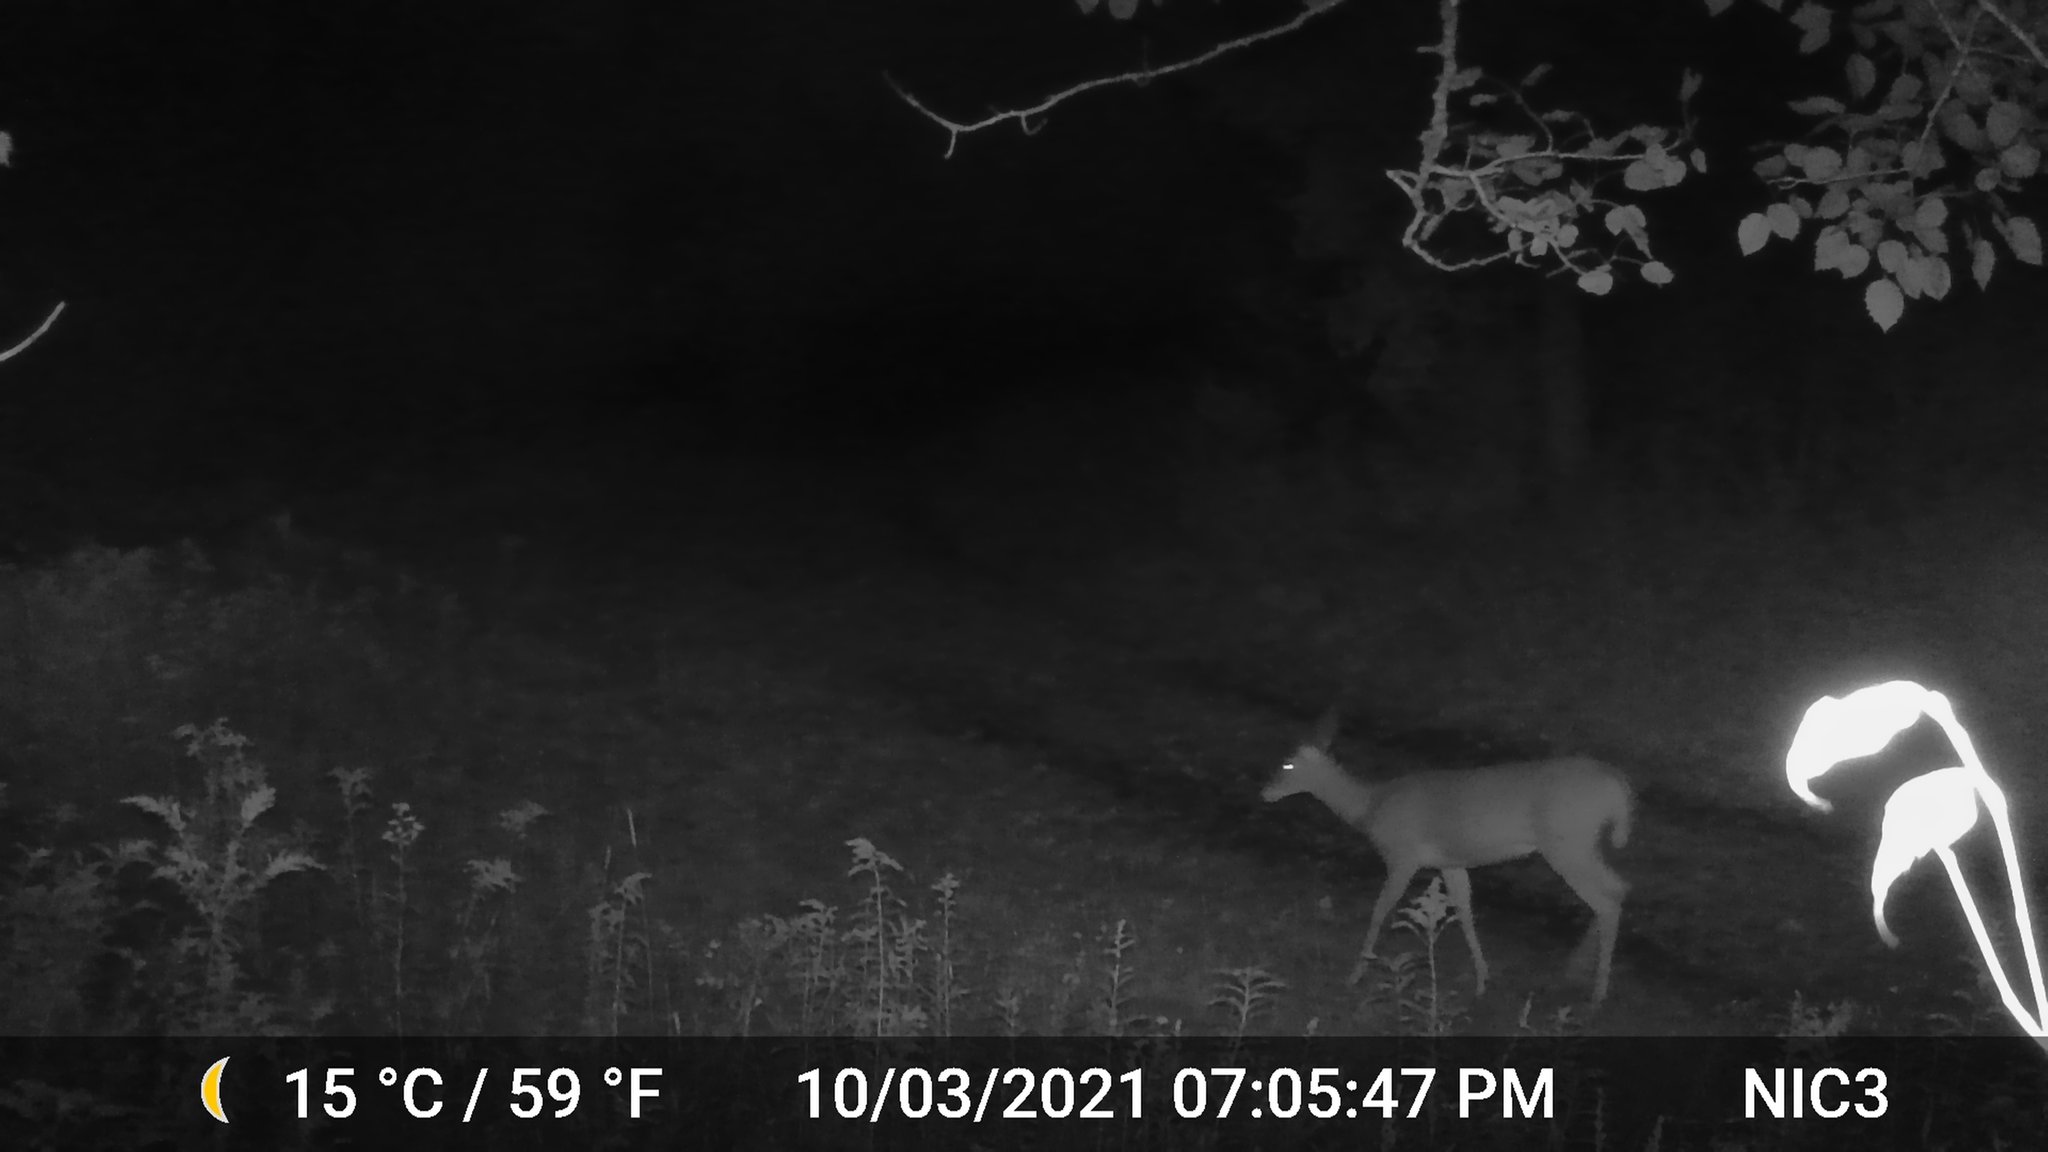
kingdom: Animalia
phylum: Chordata
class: Mammalia
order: Artiodactyla
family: Cervidae
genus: Odocoileus
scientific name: Odocoileus virginianus
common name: White-tailed deer
